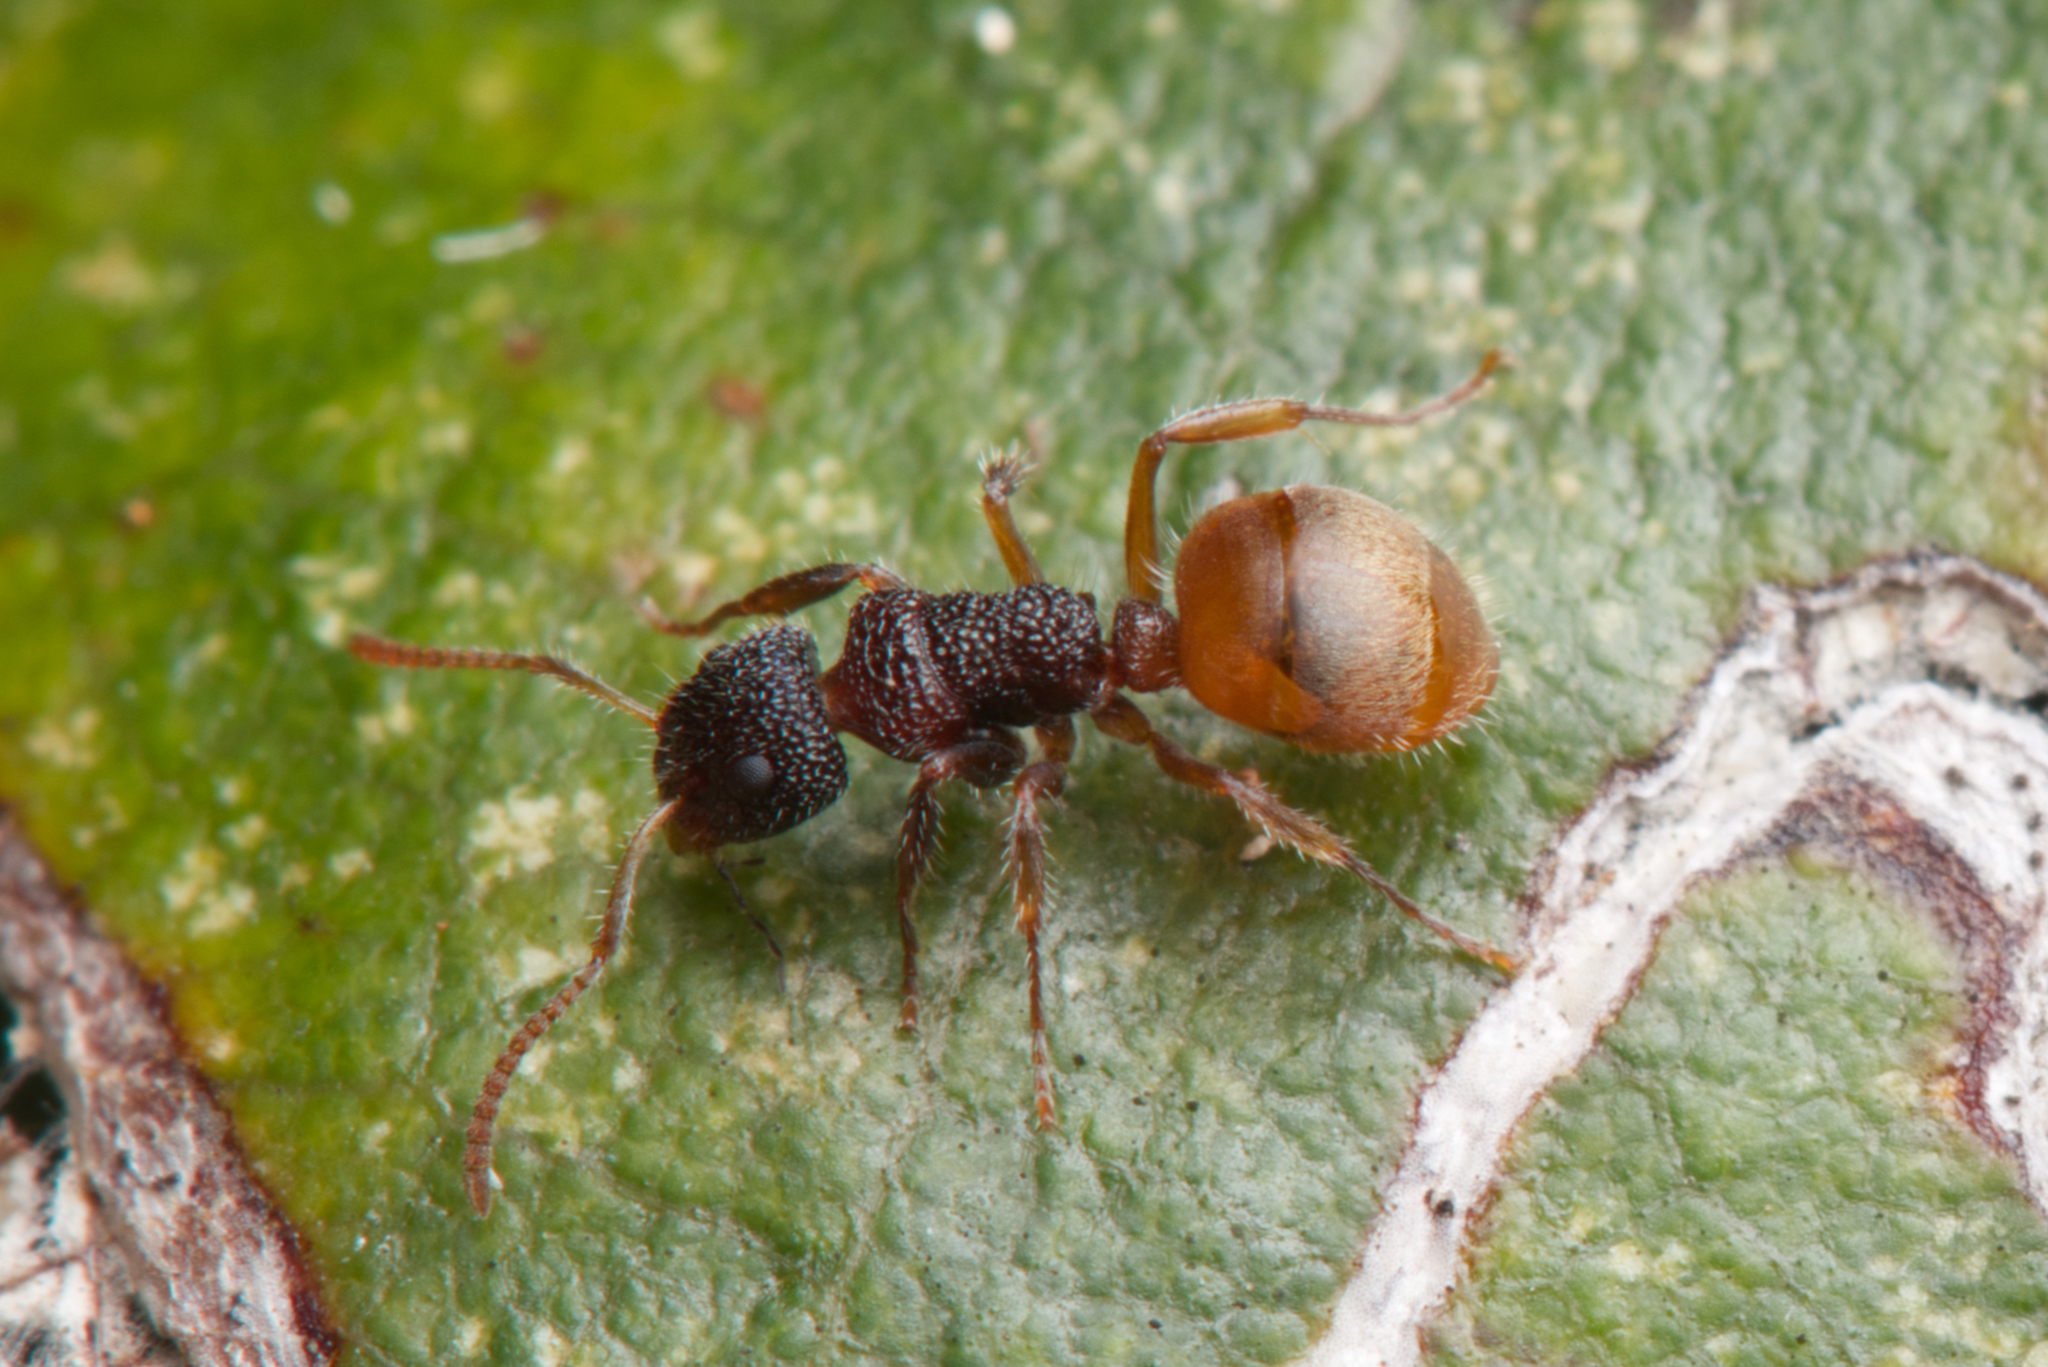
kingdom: Animalia
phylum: Arthropoda
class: Insecta
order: Hymenoptera
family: Formicidae
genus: Dolichoderus
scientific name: Dolichoderus turneri
